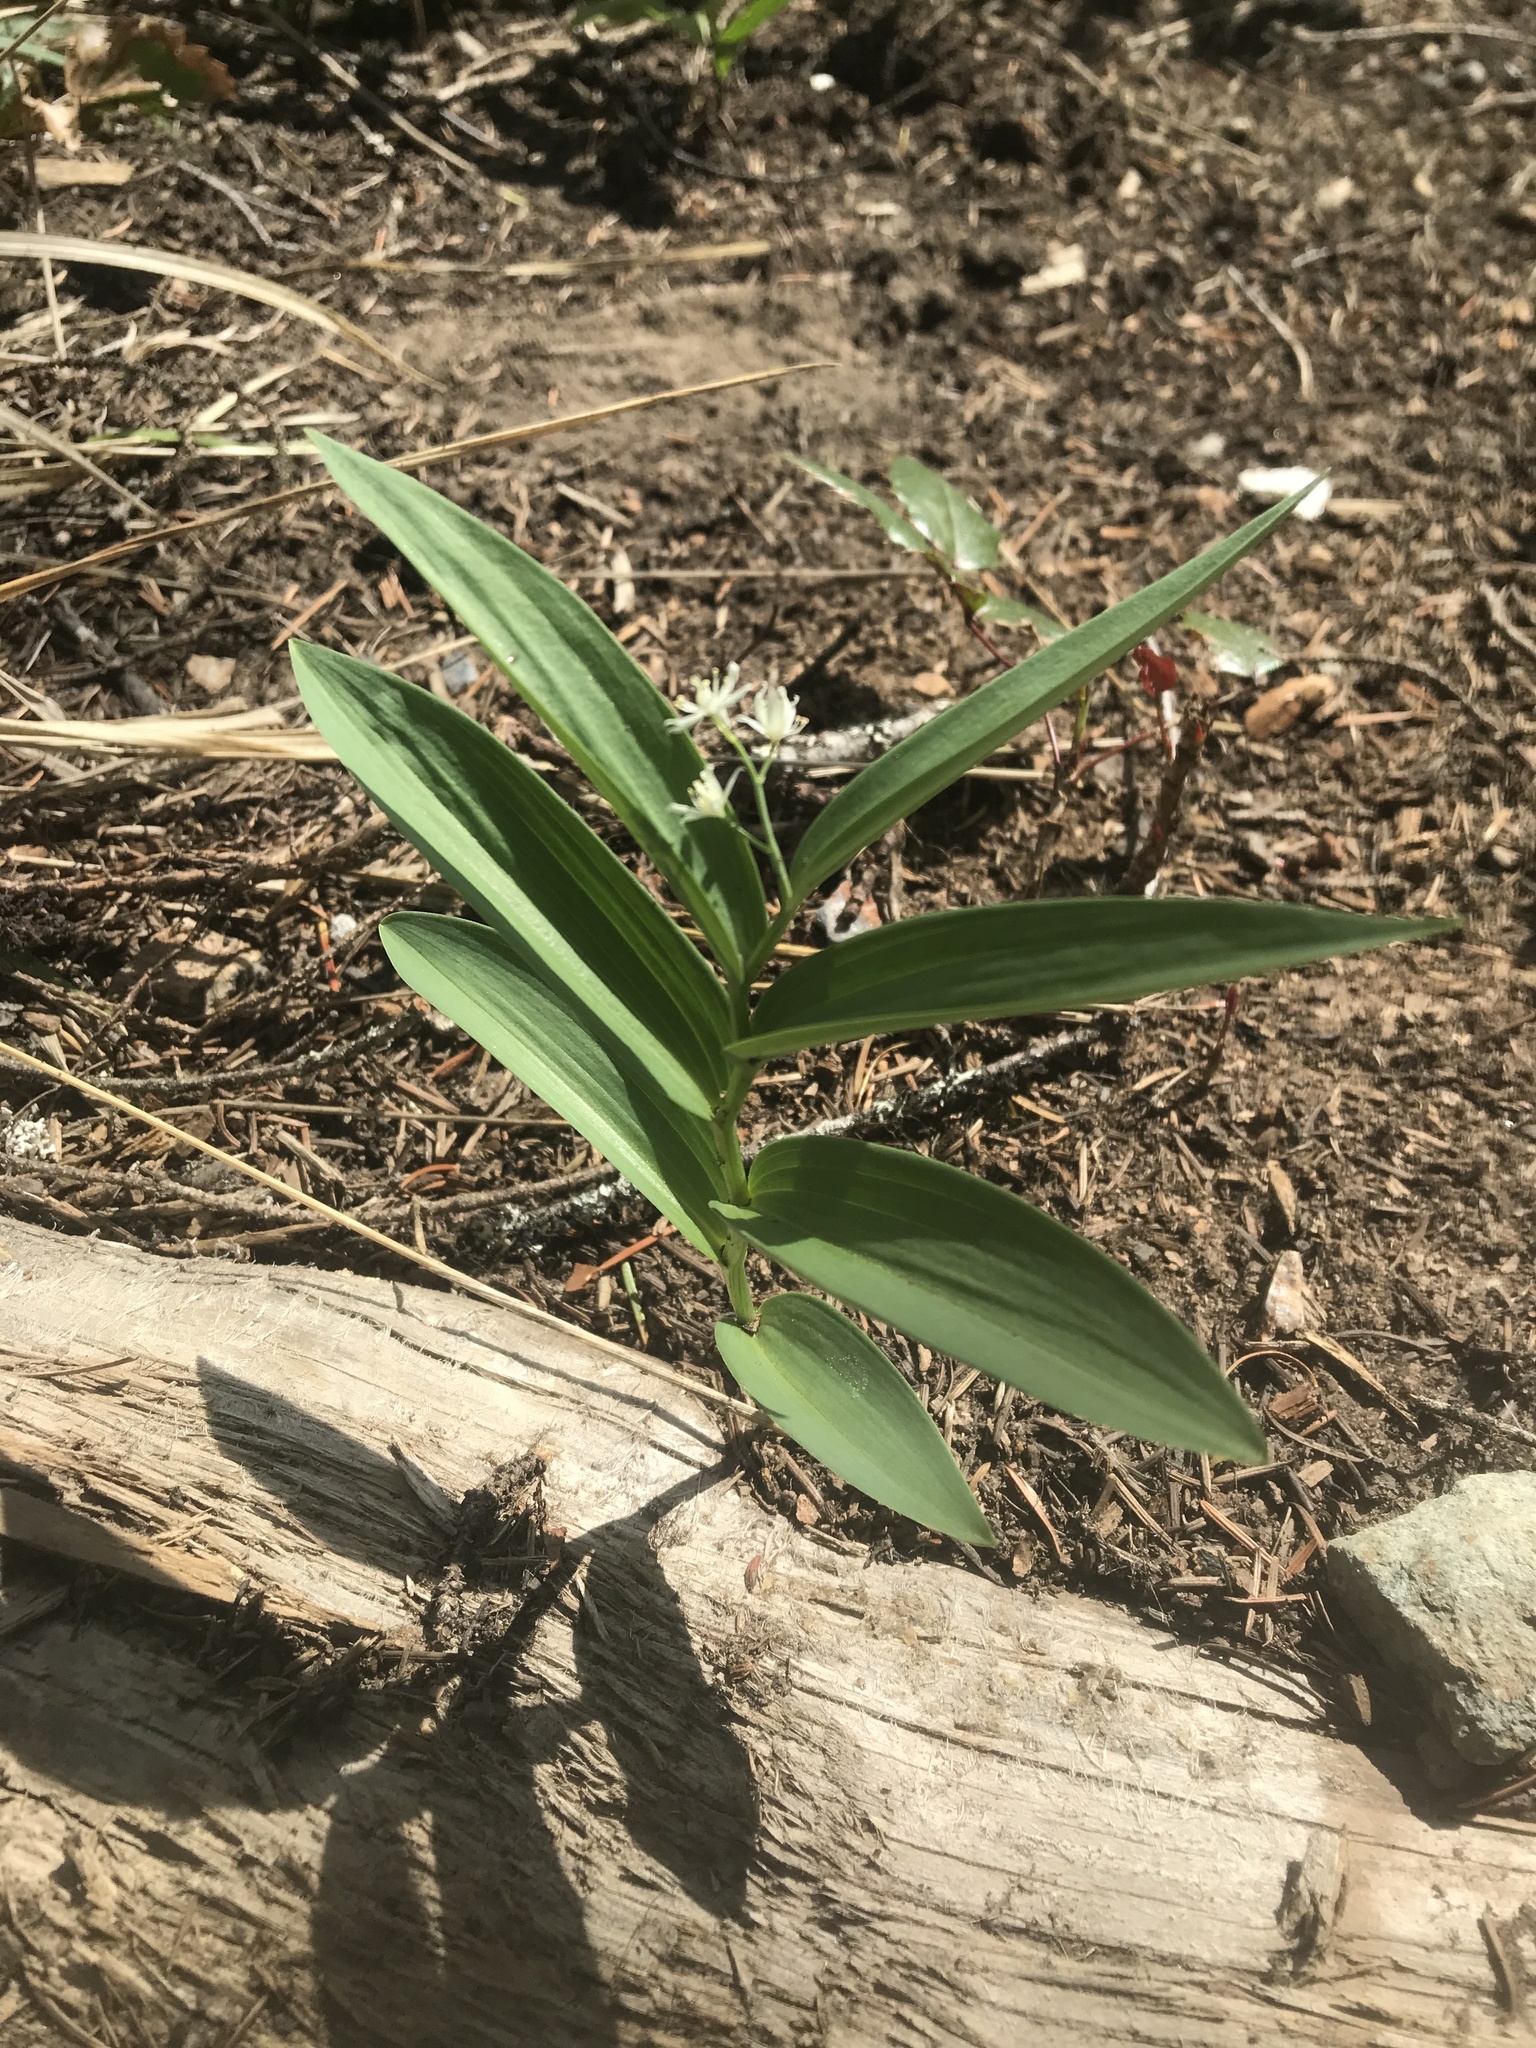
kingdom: Plantae
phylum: Tracheophyta
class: Liliopsida
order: Asparagales
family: Asparagaceae
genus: Maianthemum
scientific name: Maianthemum stellatum
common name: Little false solomon's seal
